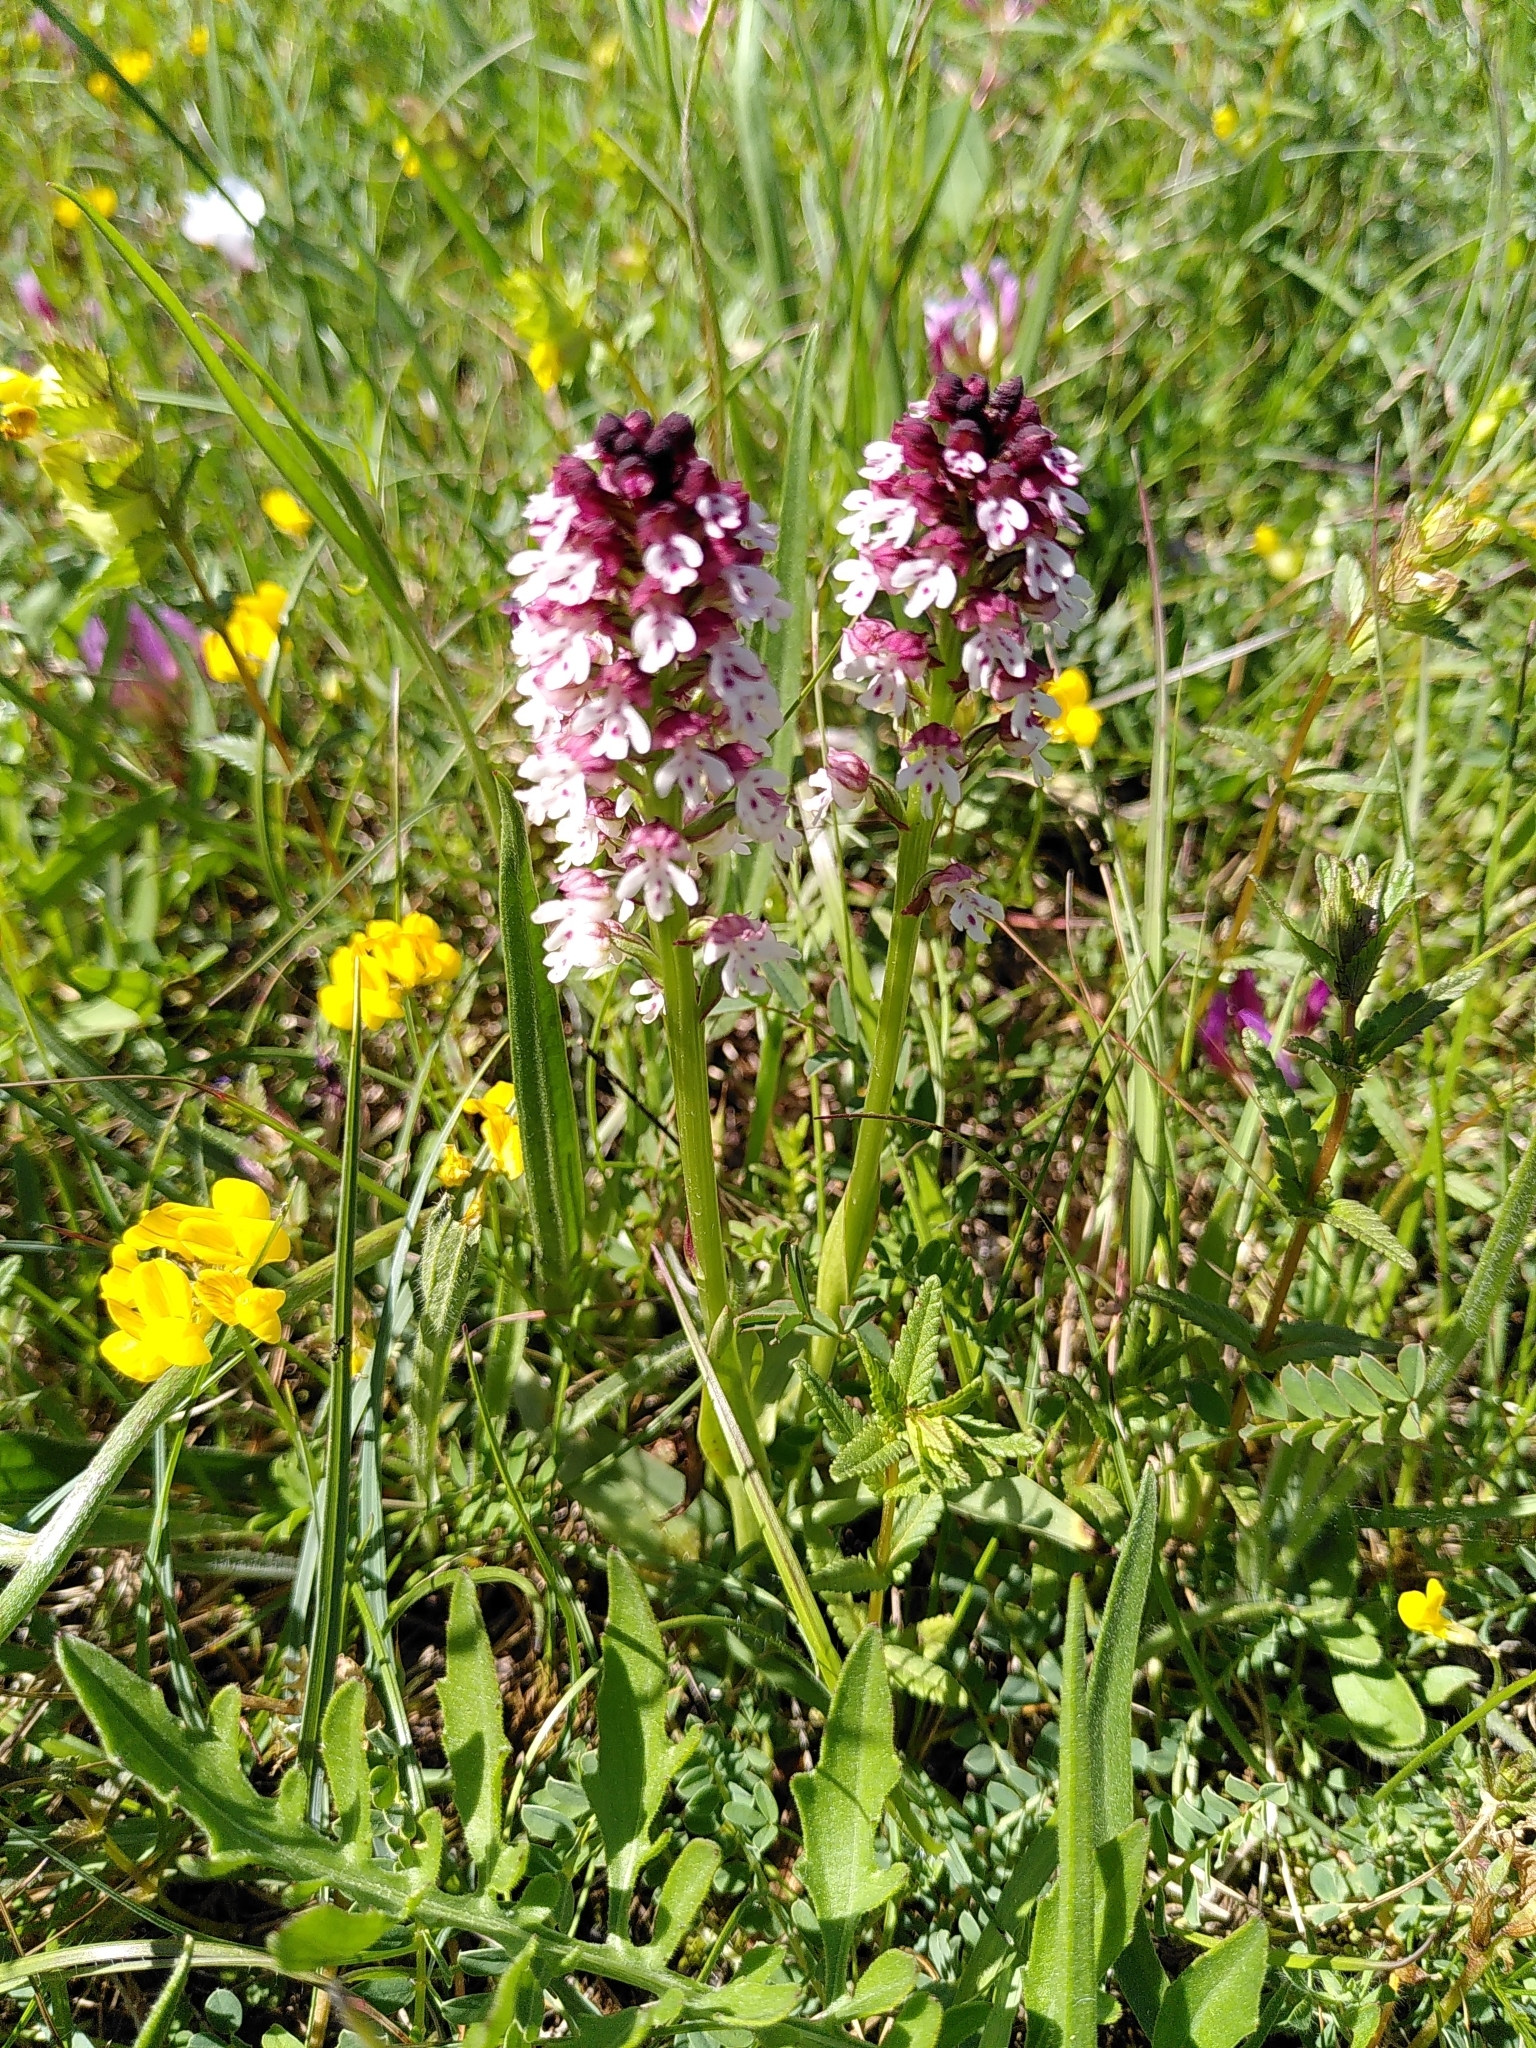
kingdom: Plantae
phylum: Tracheophyta
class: Liliopsida
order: Asparagales
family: Orchidaceae
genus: Neotinea
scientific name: Neotinea ustulata
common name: Burnt orchid
